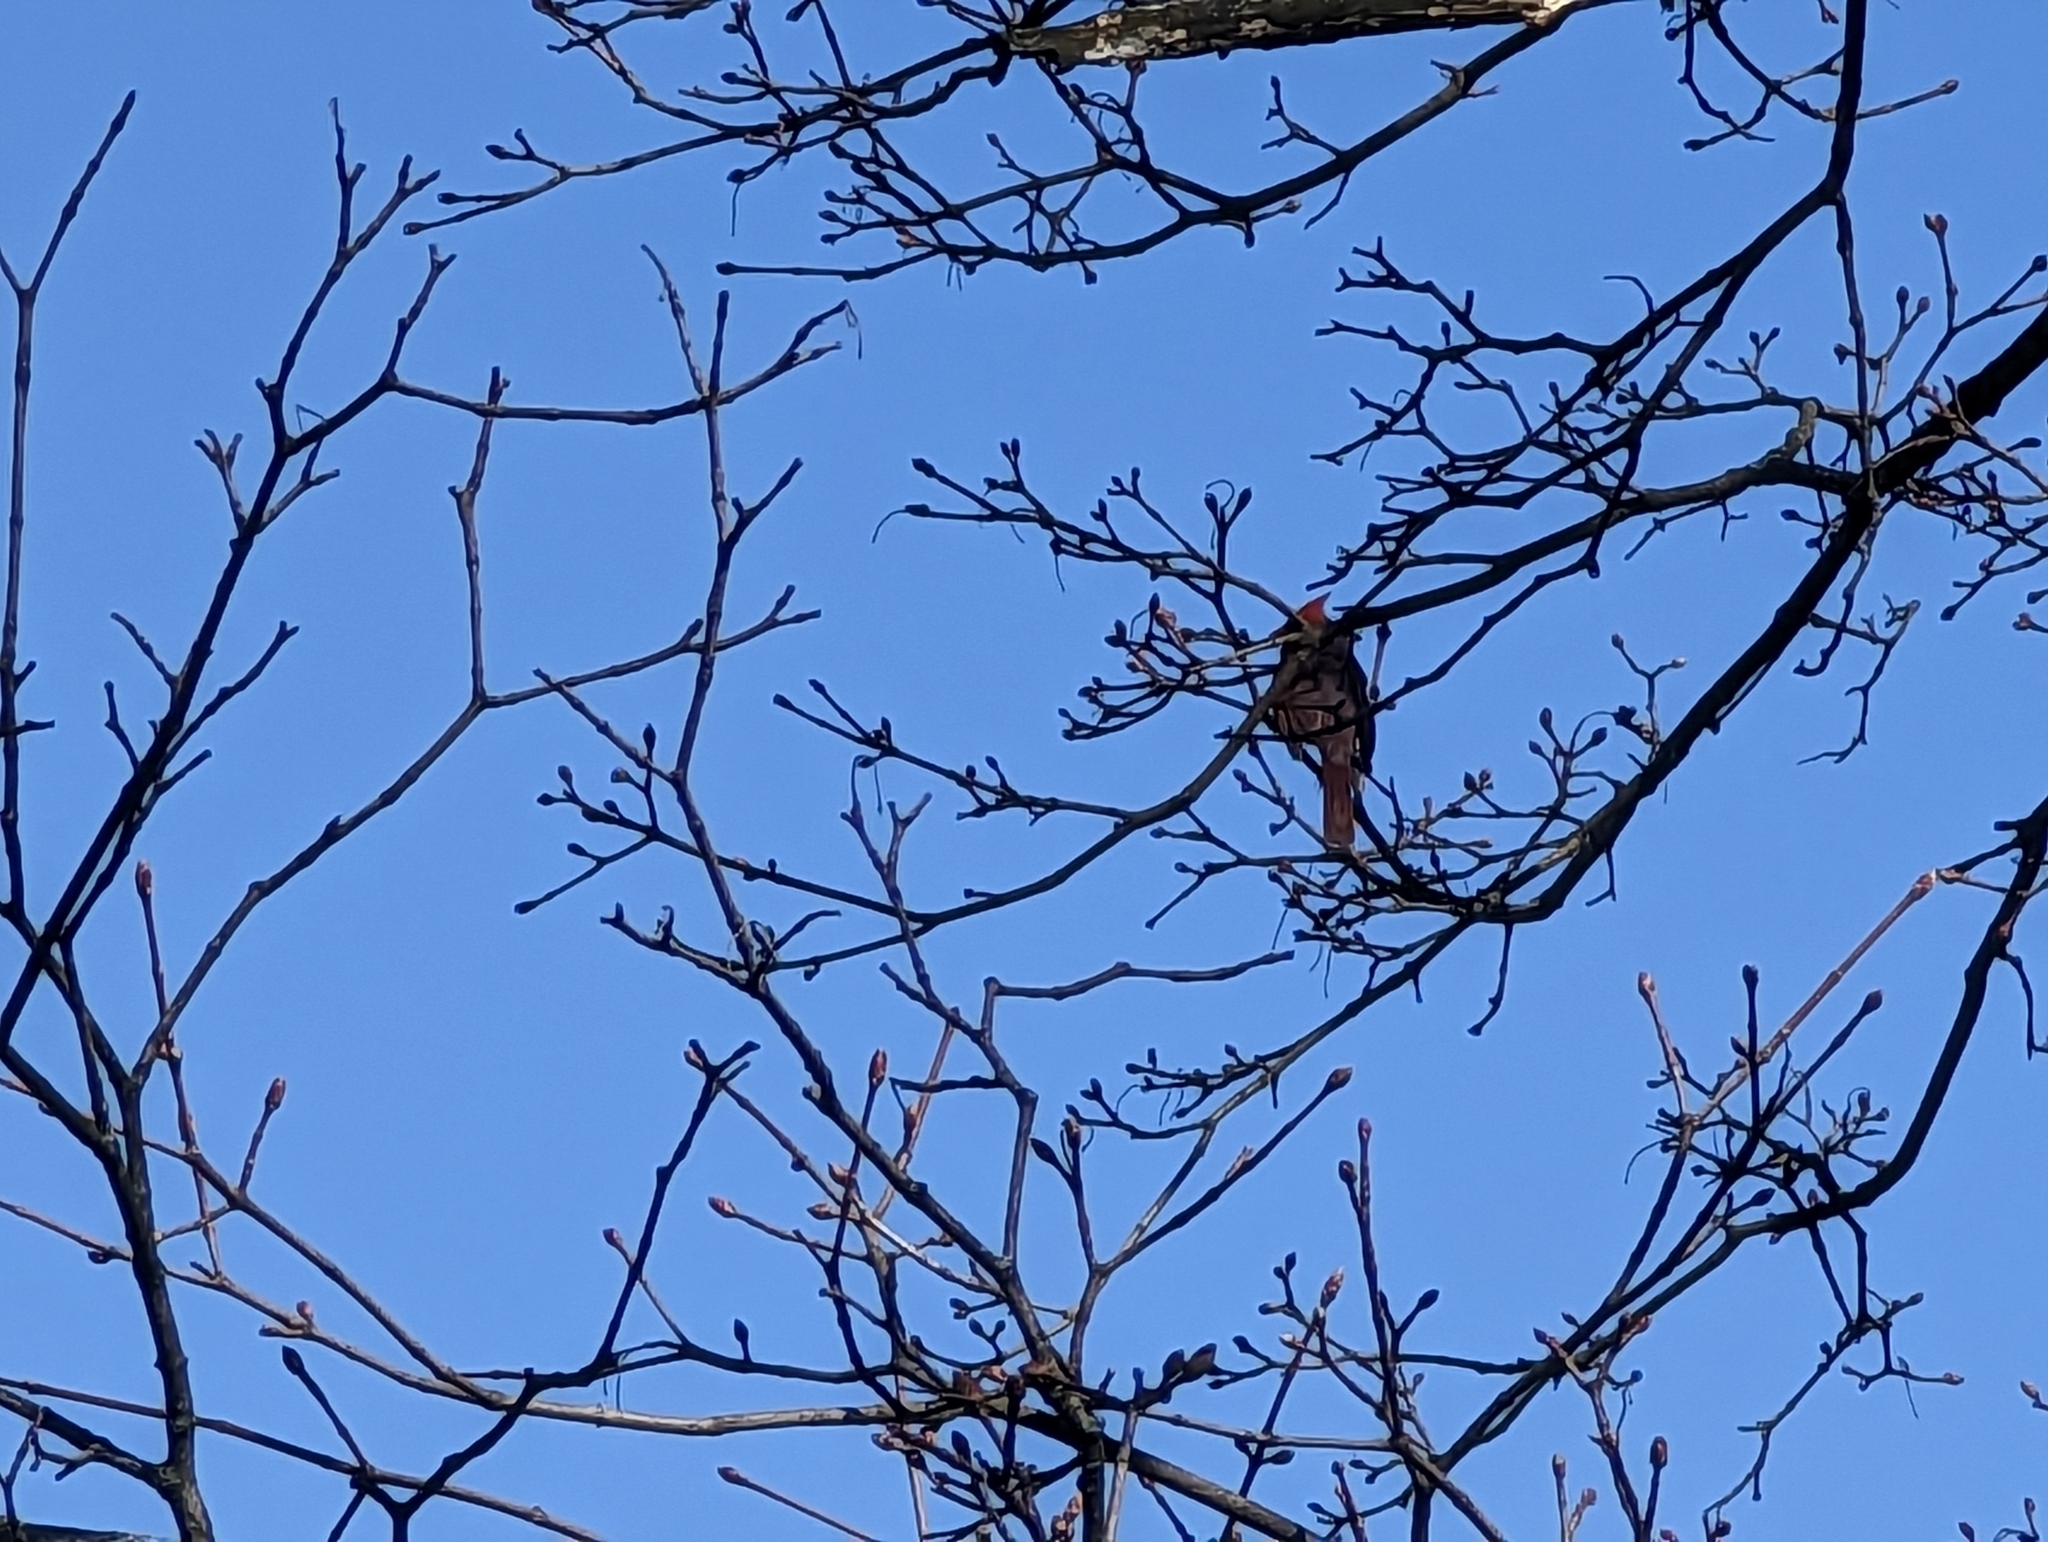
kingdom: Animalia
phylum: Chordata
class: Aves
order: Passeriformes
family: Cardinalidae
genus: Cardinalis
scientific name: Cardinalis cardinalis
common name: Northern cardinal
